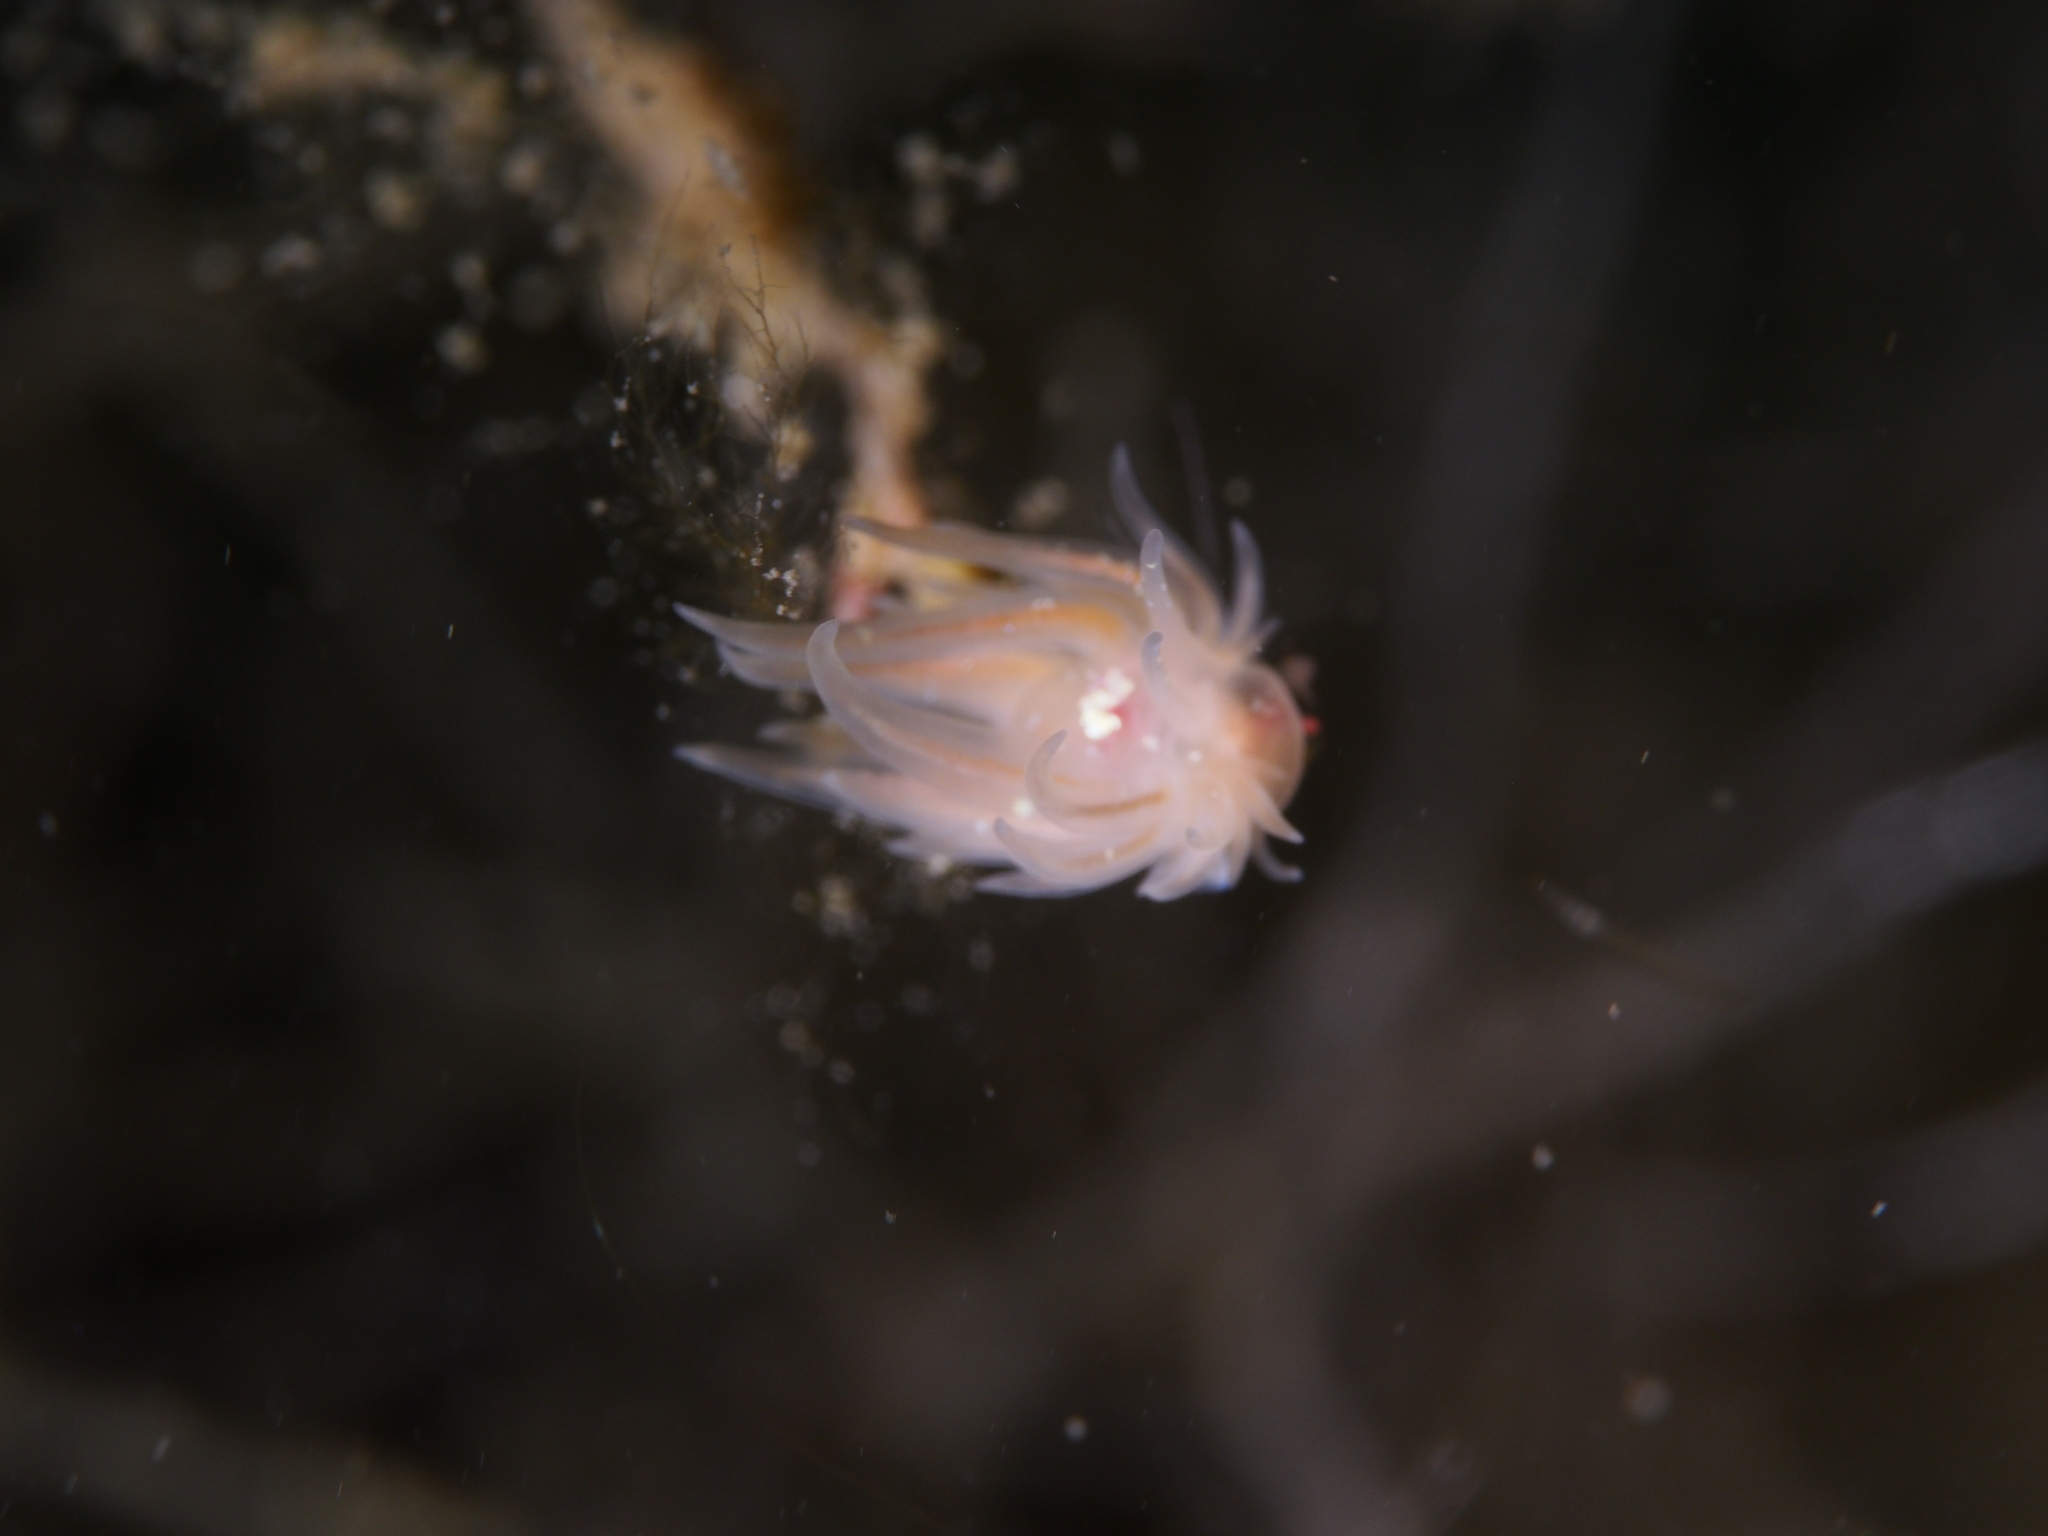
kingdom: Animalia
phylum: Mollusca
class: Gastropoda
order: Nudibranchia
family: Cumanotidae
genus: Cumanotus
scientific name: Cumanotus beaumonti
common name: Polyp aeolis
